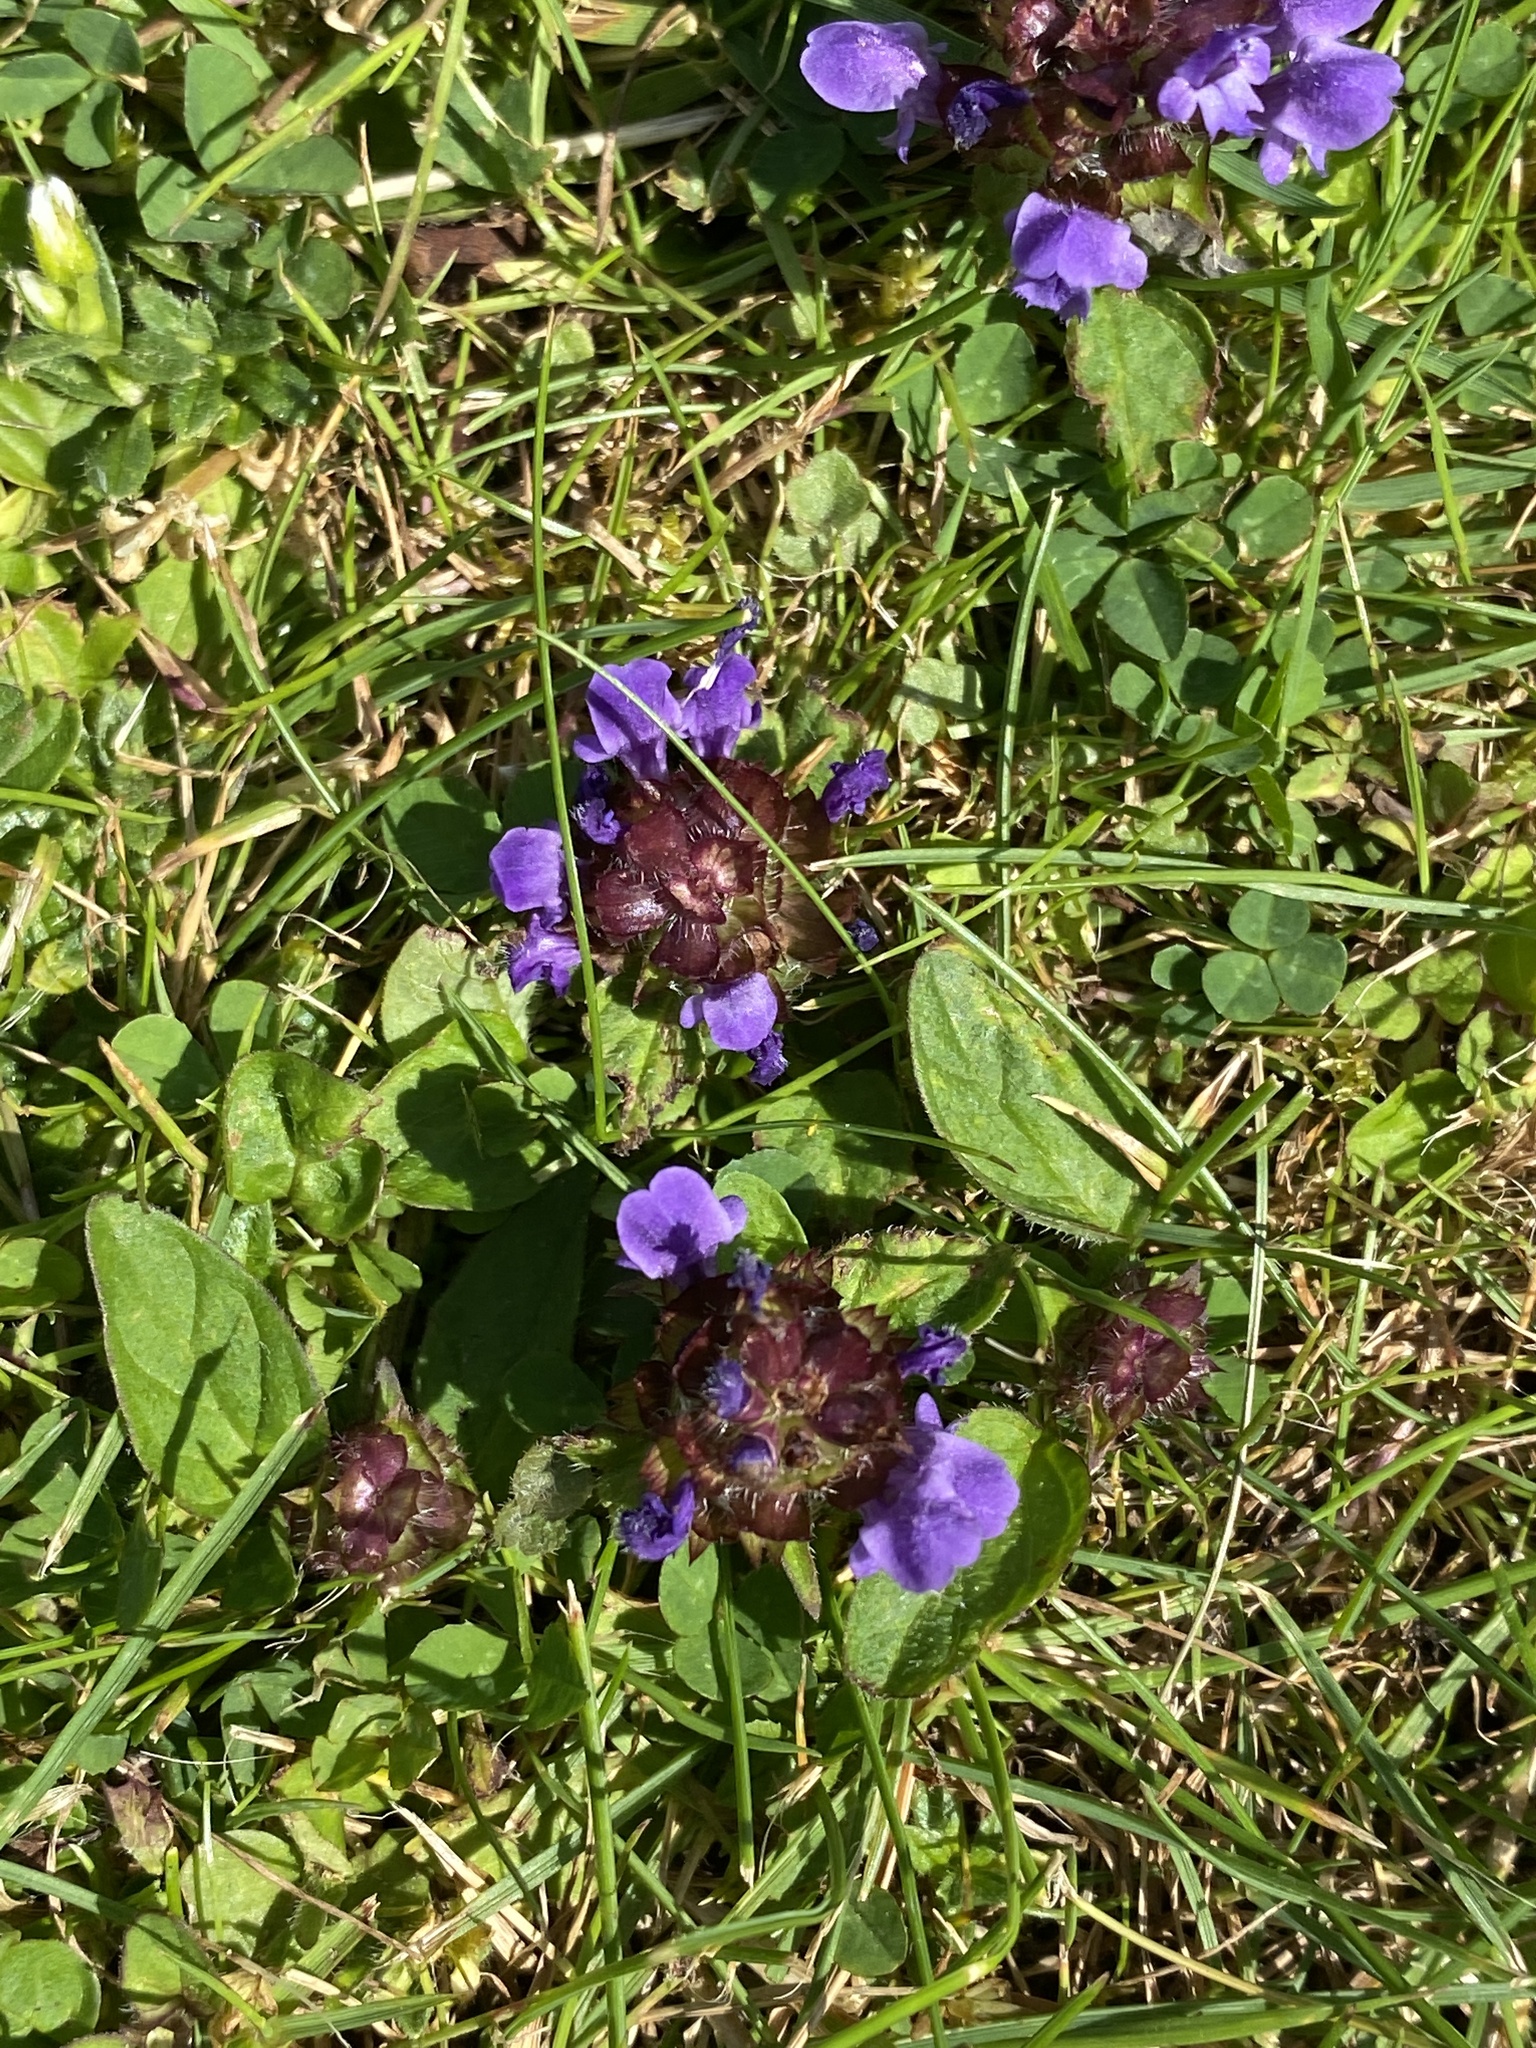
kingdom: Plantae
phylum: Tracheophyta
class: Magnoliopsida
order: Lamiales
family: Lamiaceae
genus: Prunella
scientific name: Prunella vulgaris
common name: Heal-all
